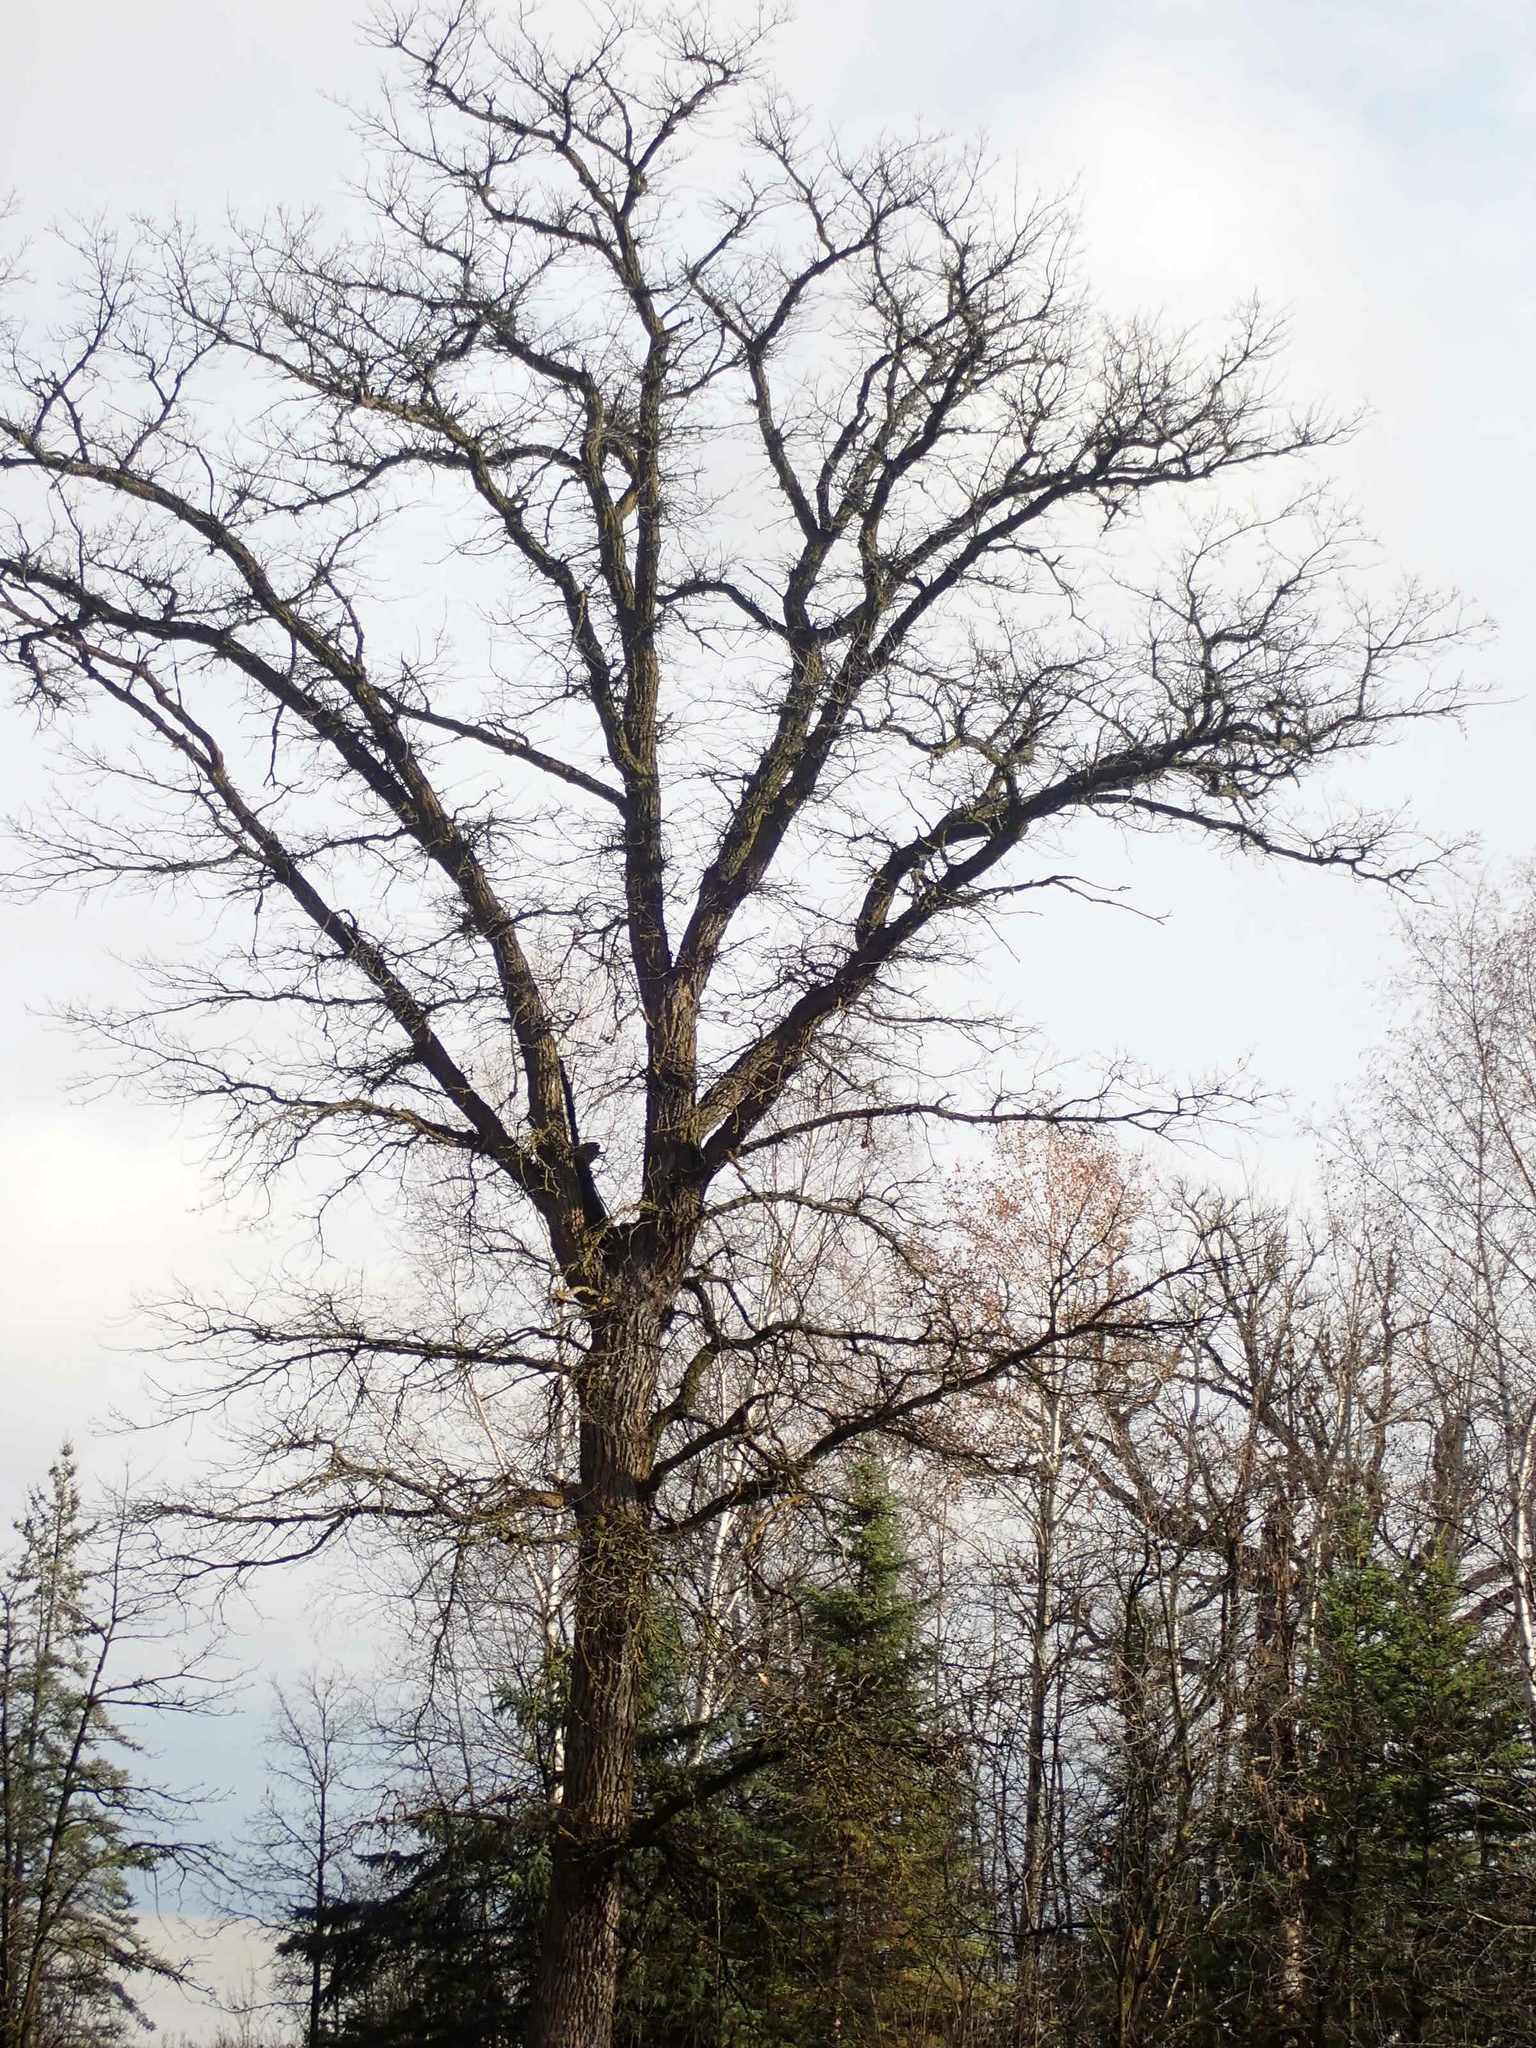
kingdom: Plantae
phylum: Tracheophyta
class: Magnoliopsida
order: Fagales
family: Fagaceae
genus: Quercus
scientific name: Quercus macrocarpa
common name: Bur oak
